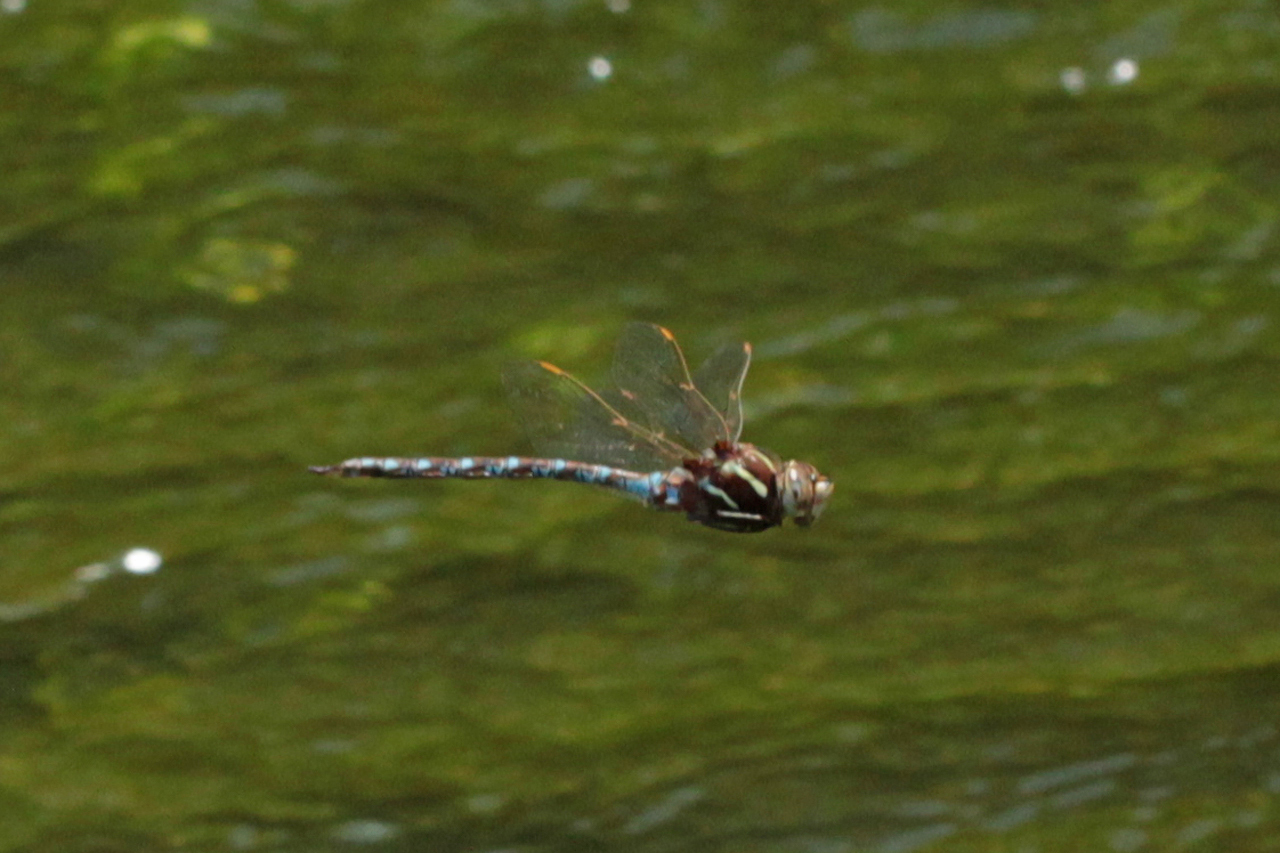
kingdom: Animalia
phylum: Arthropoda
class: Insecta
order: Odonata
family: Aeshnidae
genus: Basiaeschna
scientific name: Basiaeschna janata
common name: Springtime darner
